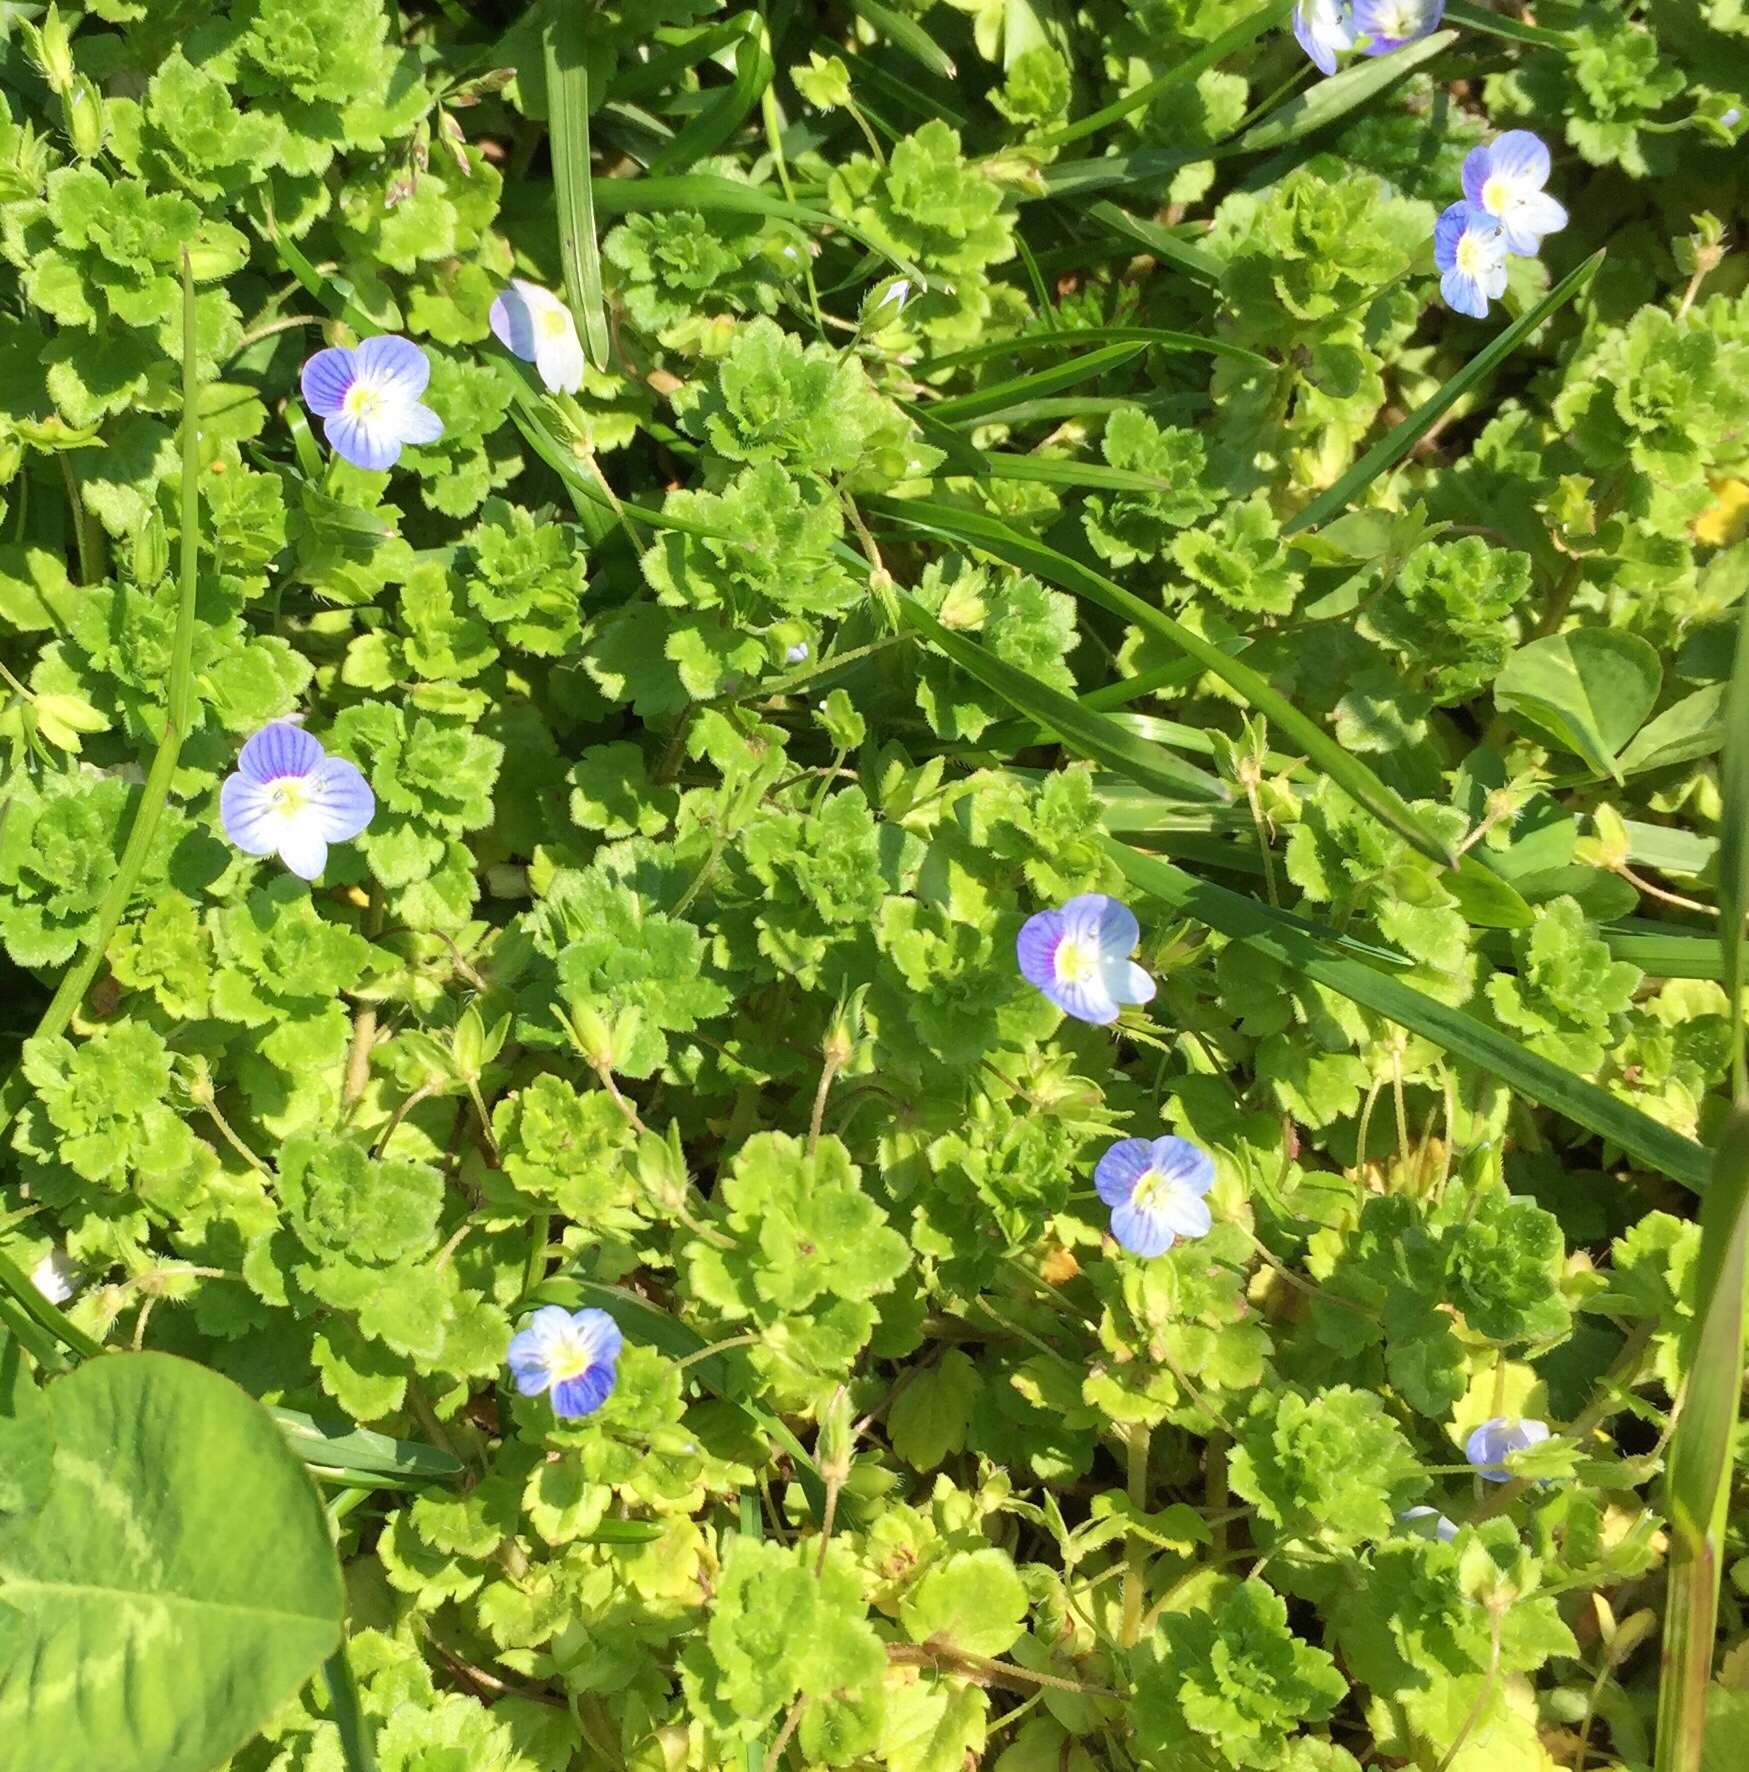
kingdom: Plantae
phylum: Tracheophyta
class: Magnoliopsida
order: Lamiales
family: Plantaginaceae
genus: Veronica
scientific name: Veronica persica
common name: Common field-speedwell
